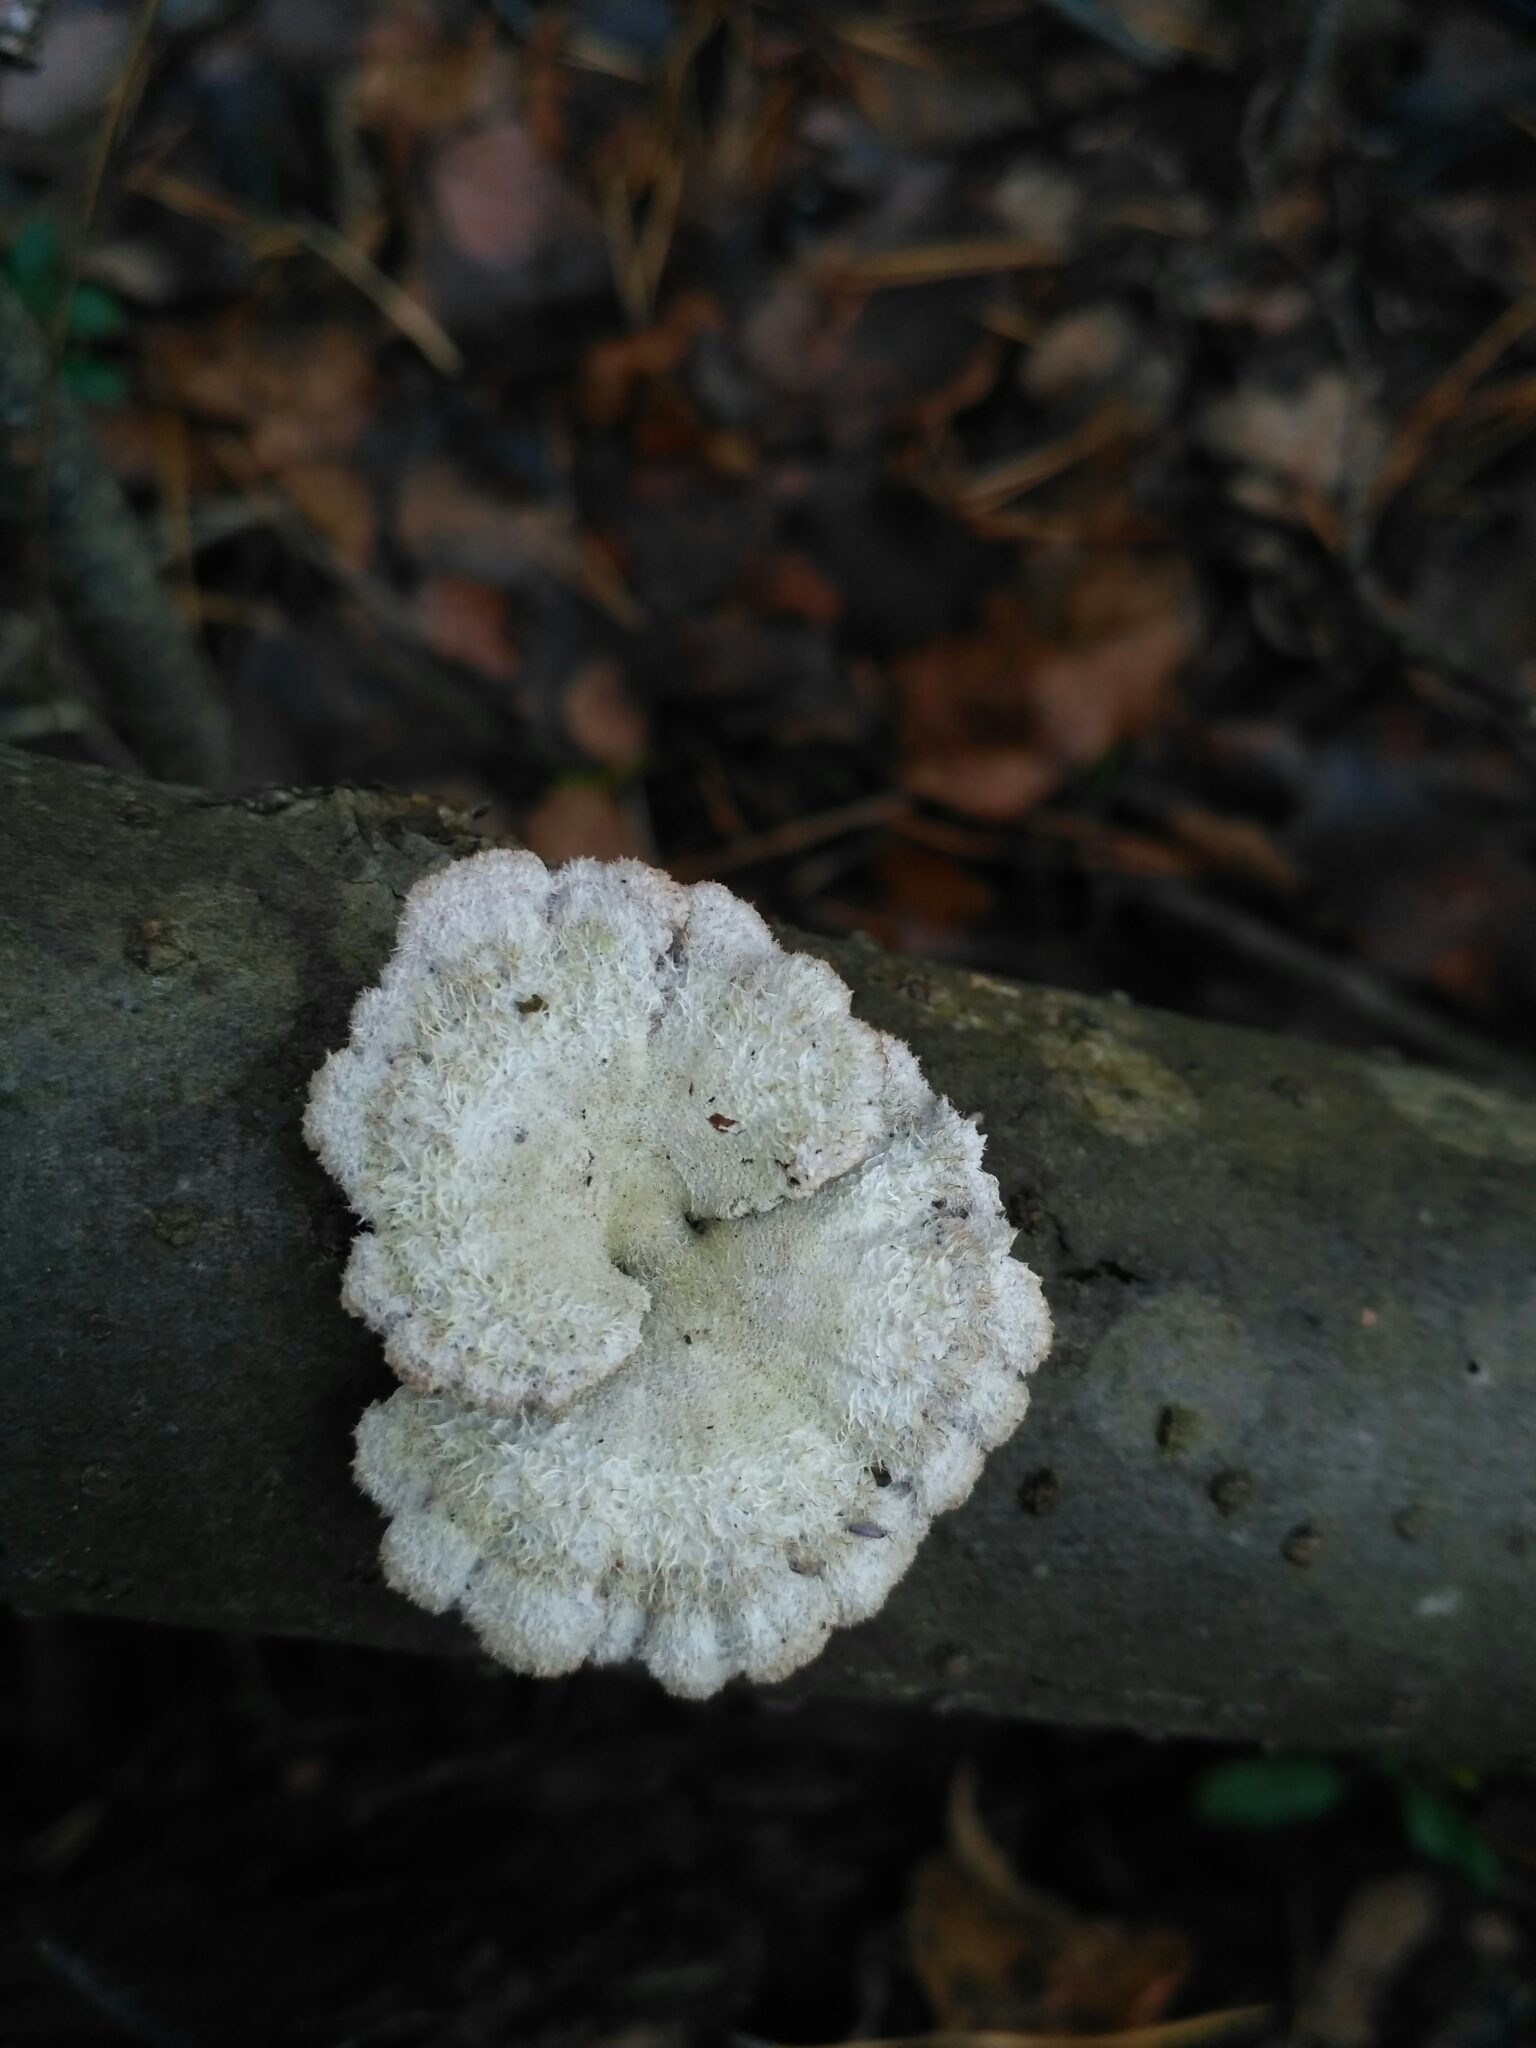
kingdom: Fungi
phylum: Basidiomycota
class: Agaricomycetes
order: Agaricales
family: Schizophyllaceae
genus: Schizophyllum
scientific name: Schizophyllum commune
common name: Common porecrust
